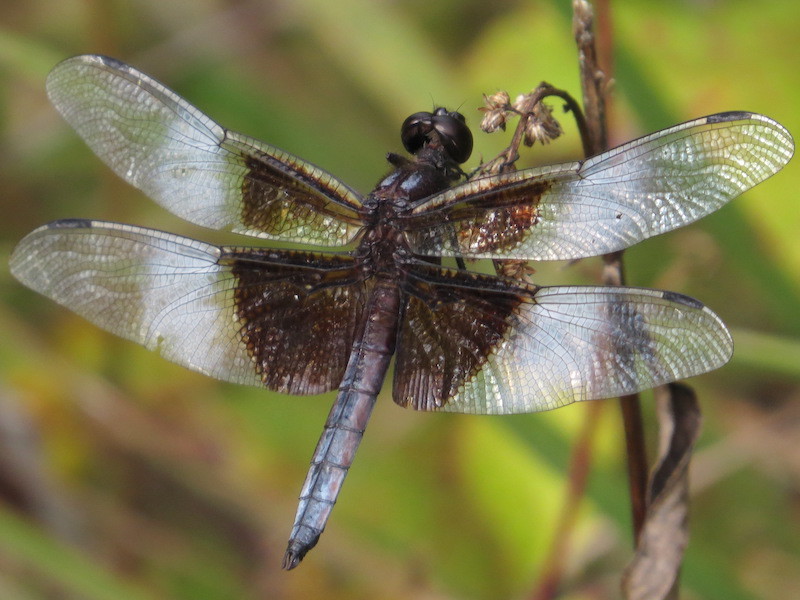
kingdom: Animalia
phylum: Arthropoda
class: Insecta
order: Odonata
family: Libellulidae
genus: Libellula
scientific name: Libellula luctuosa
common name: Widow skimmer
